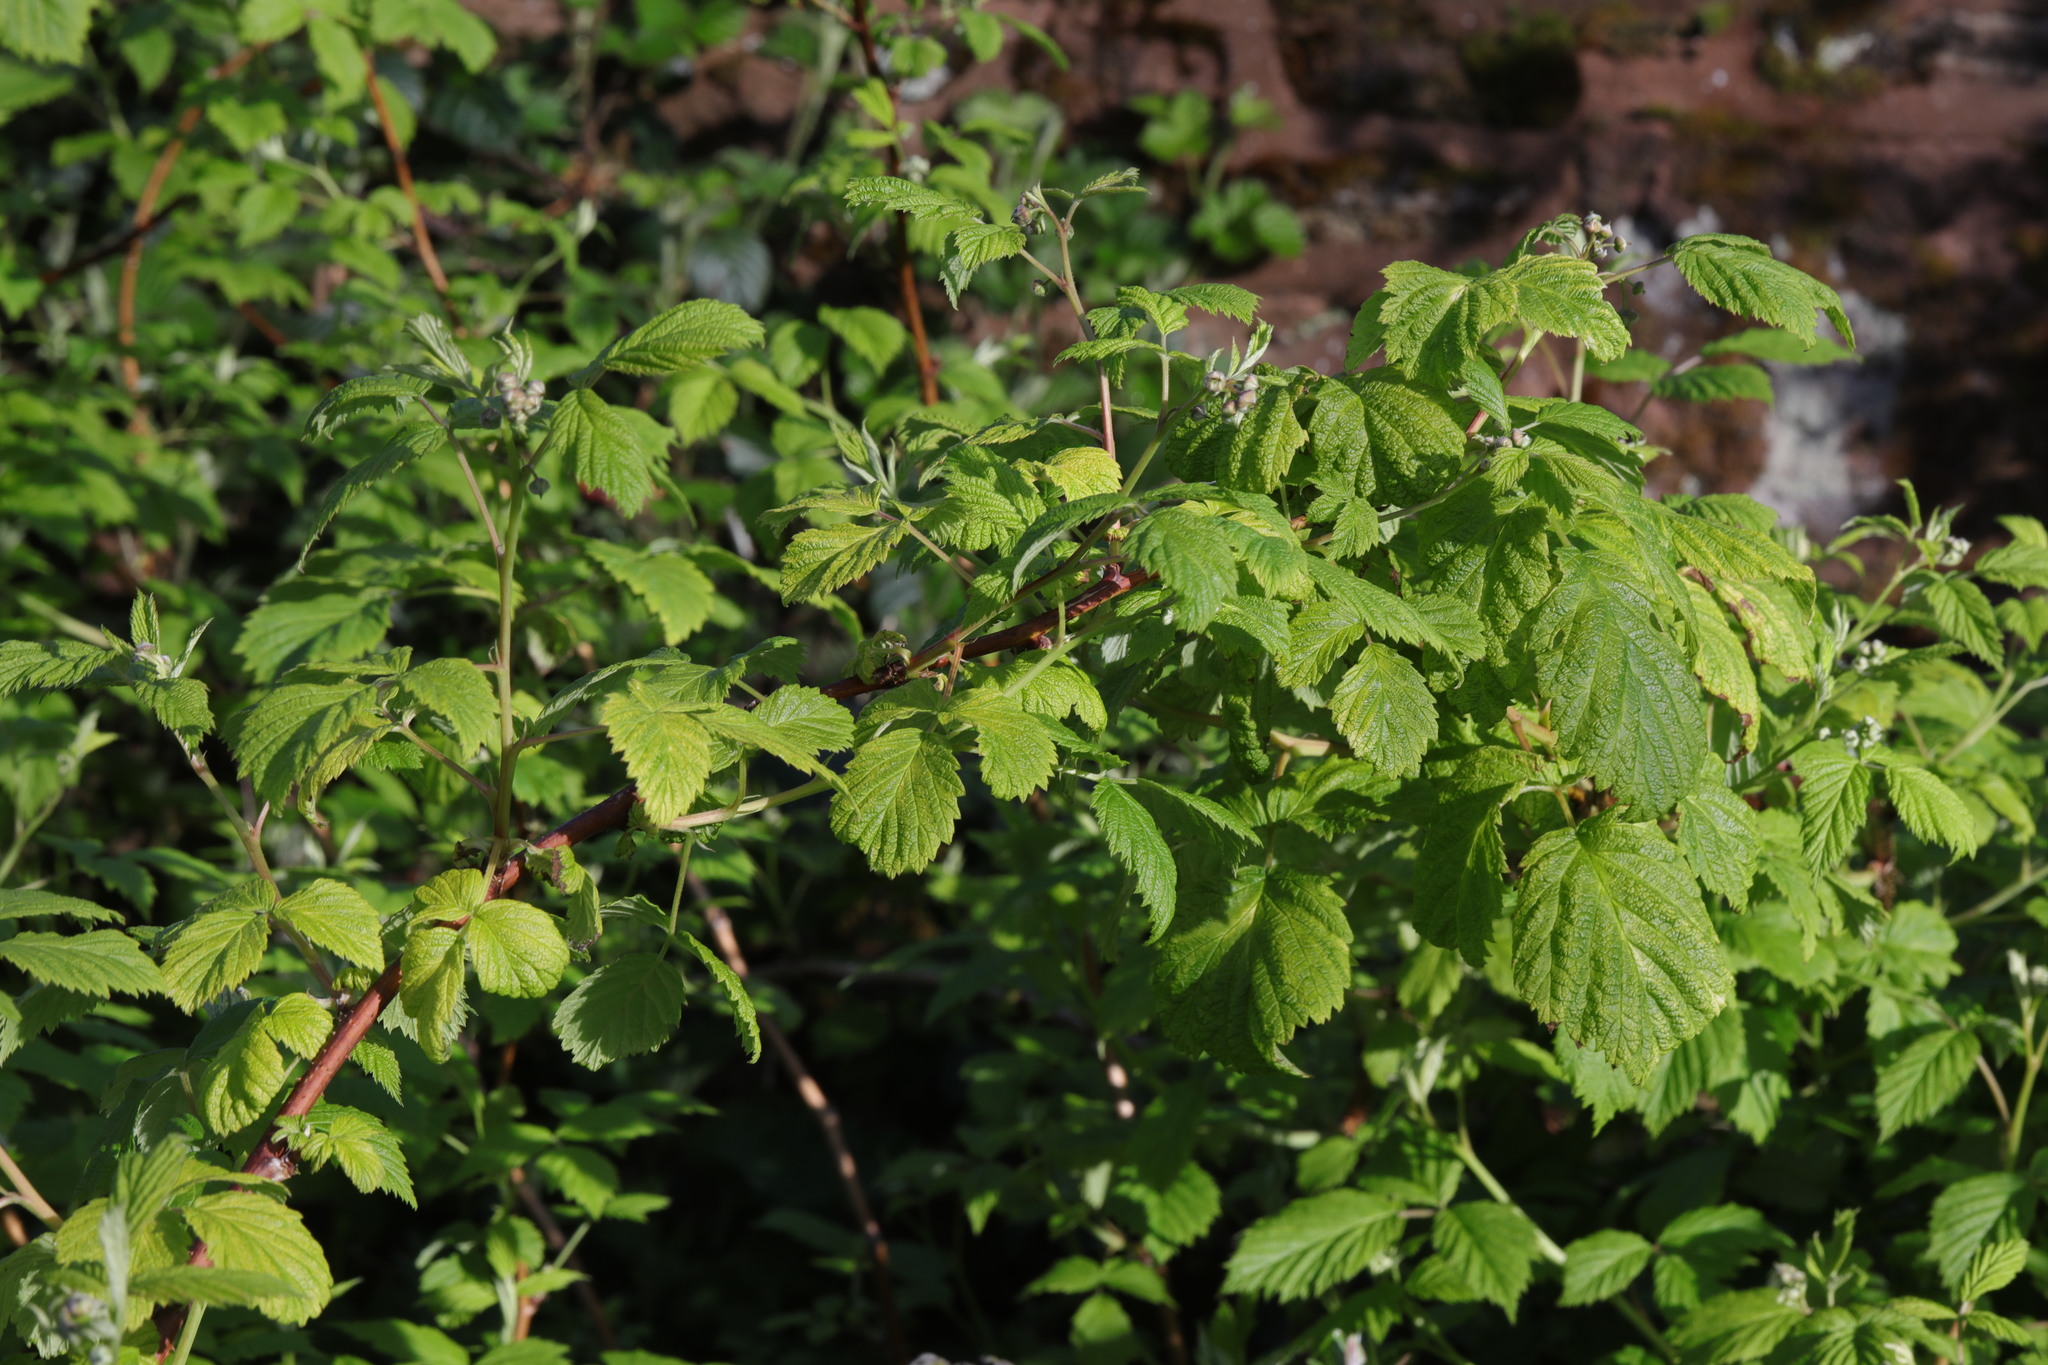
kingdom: Plantae
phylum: Tracheophyta
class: Magnoliopsida
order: Rosales
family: Rosaceae
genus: Rubus
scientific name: Rubus idaeus
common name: Raspberry
